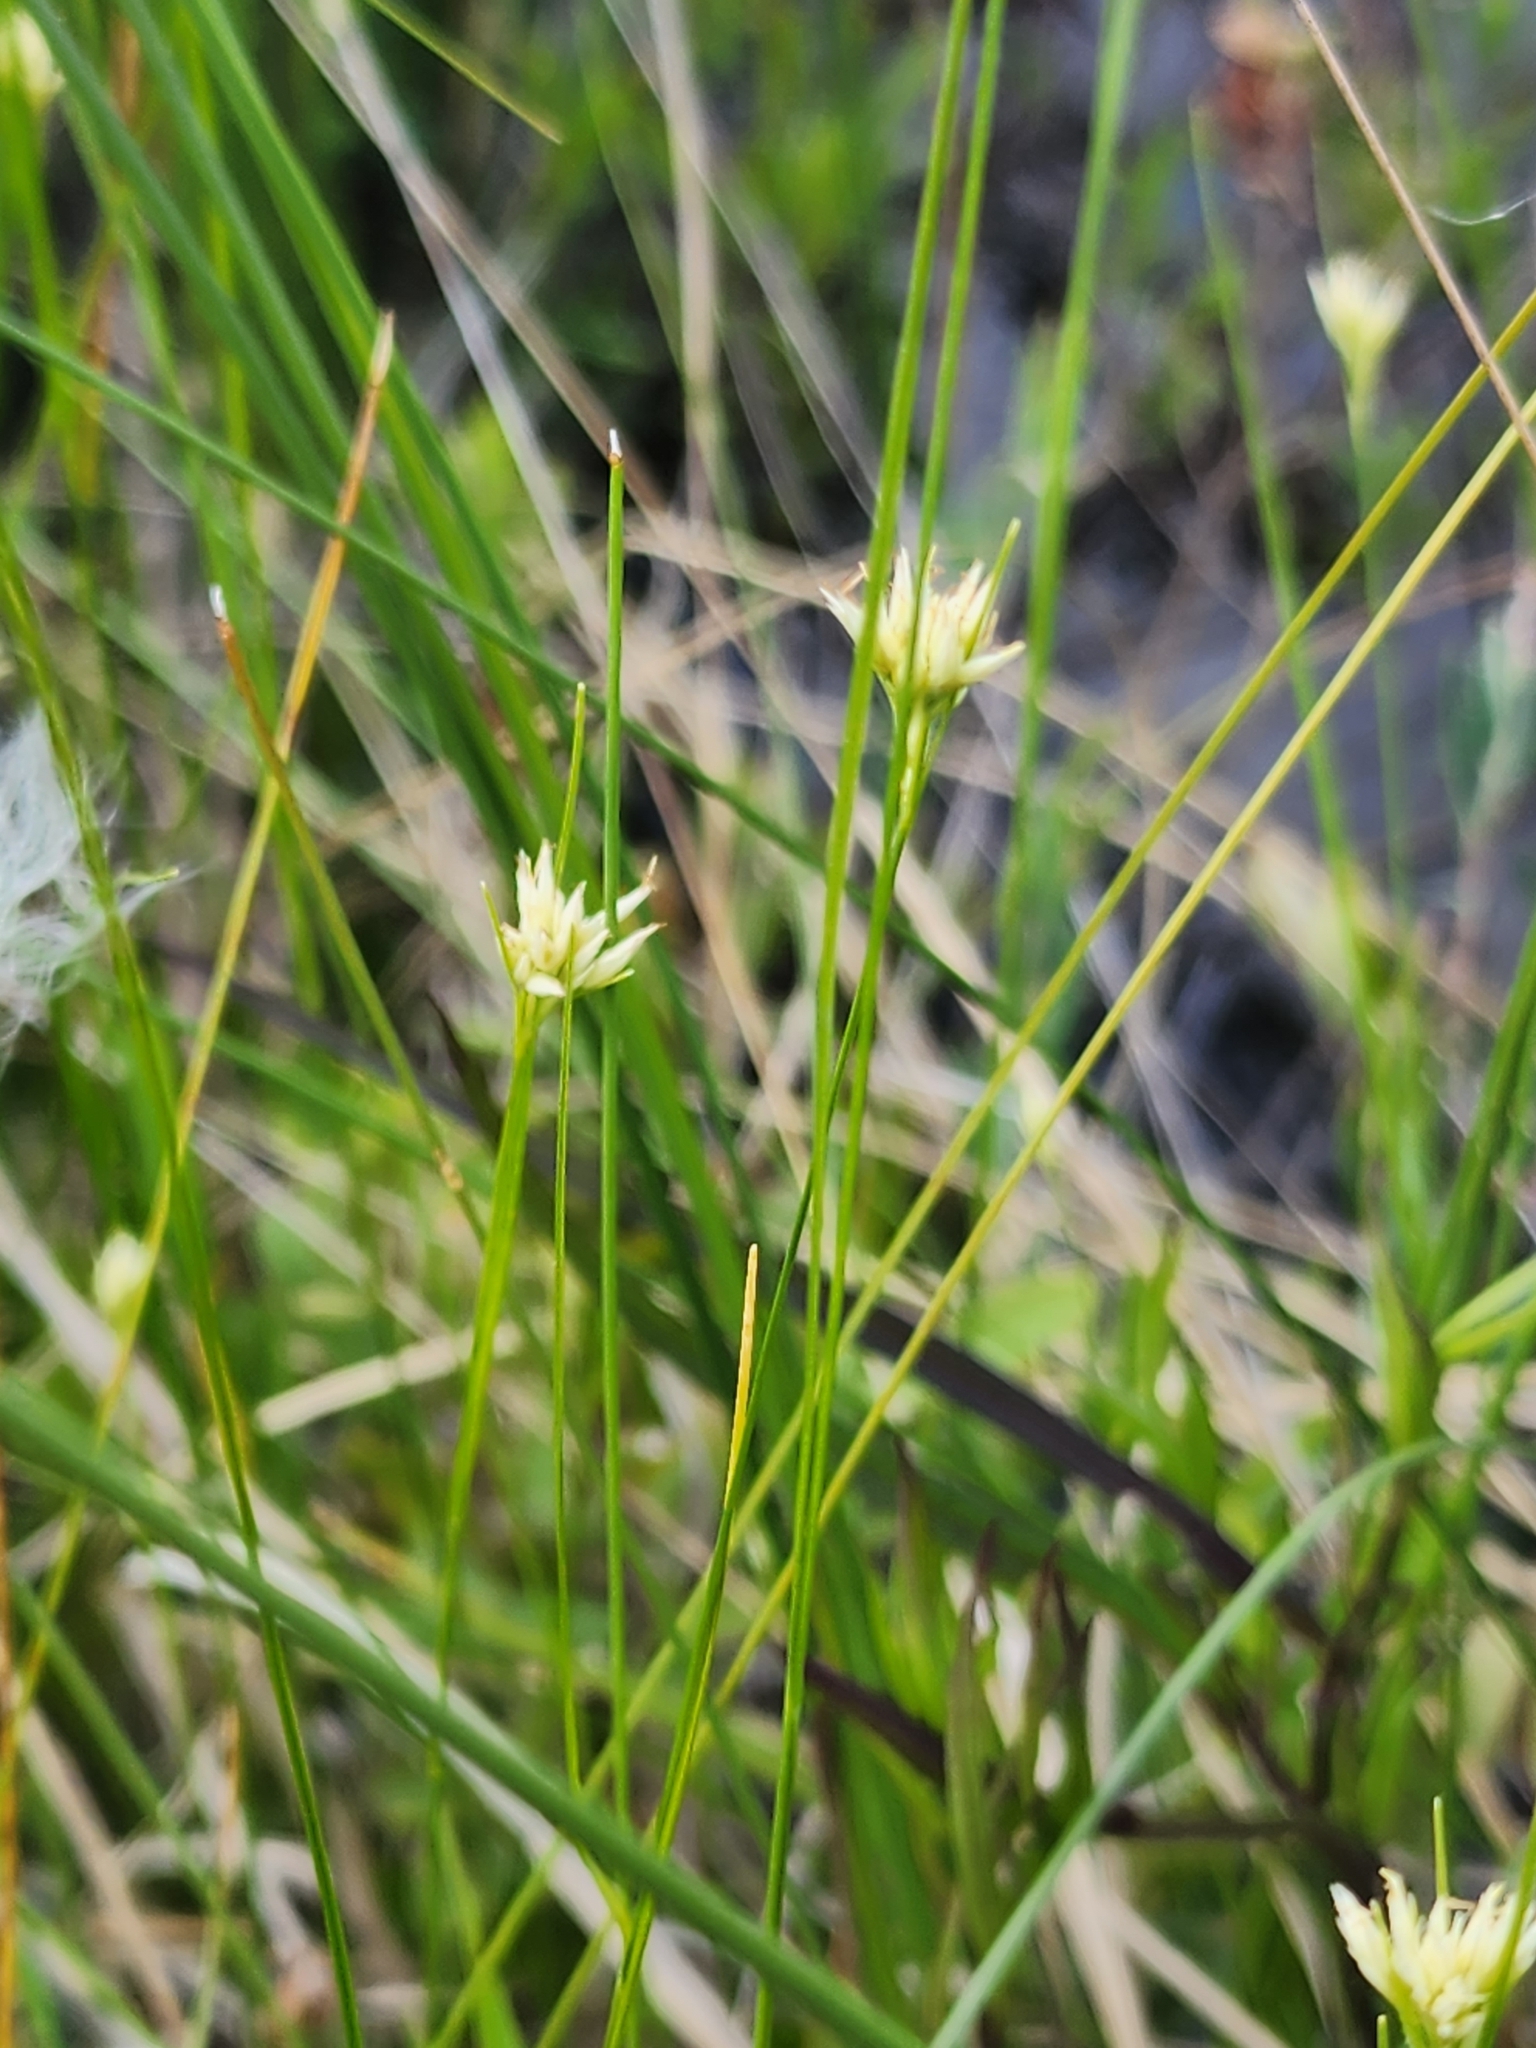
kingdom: Plantae
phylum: Tracheophyta
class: Liliopsida
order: Poales
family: Cyperaceae
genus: Rhynchospora
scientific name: Rhynchospora alba
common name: White beak-sedge
